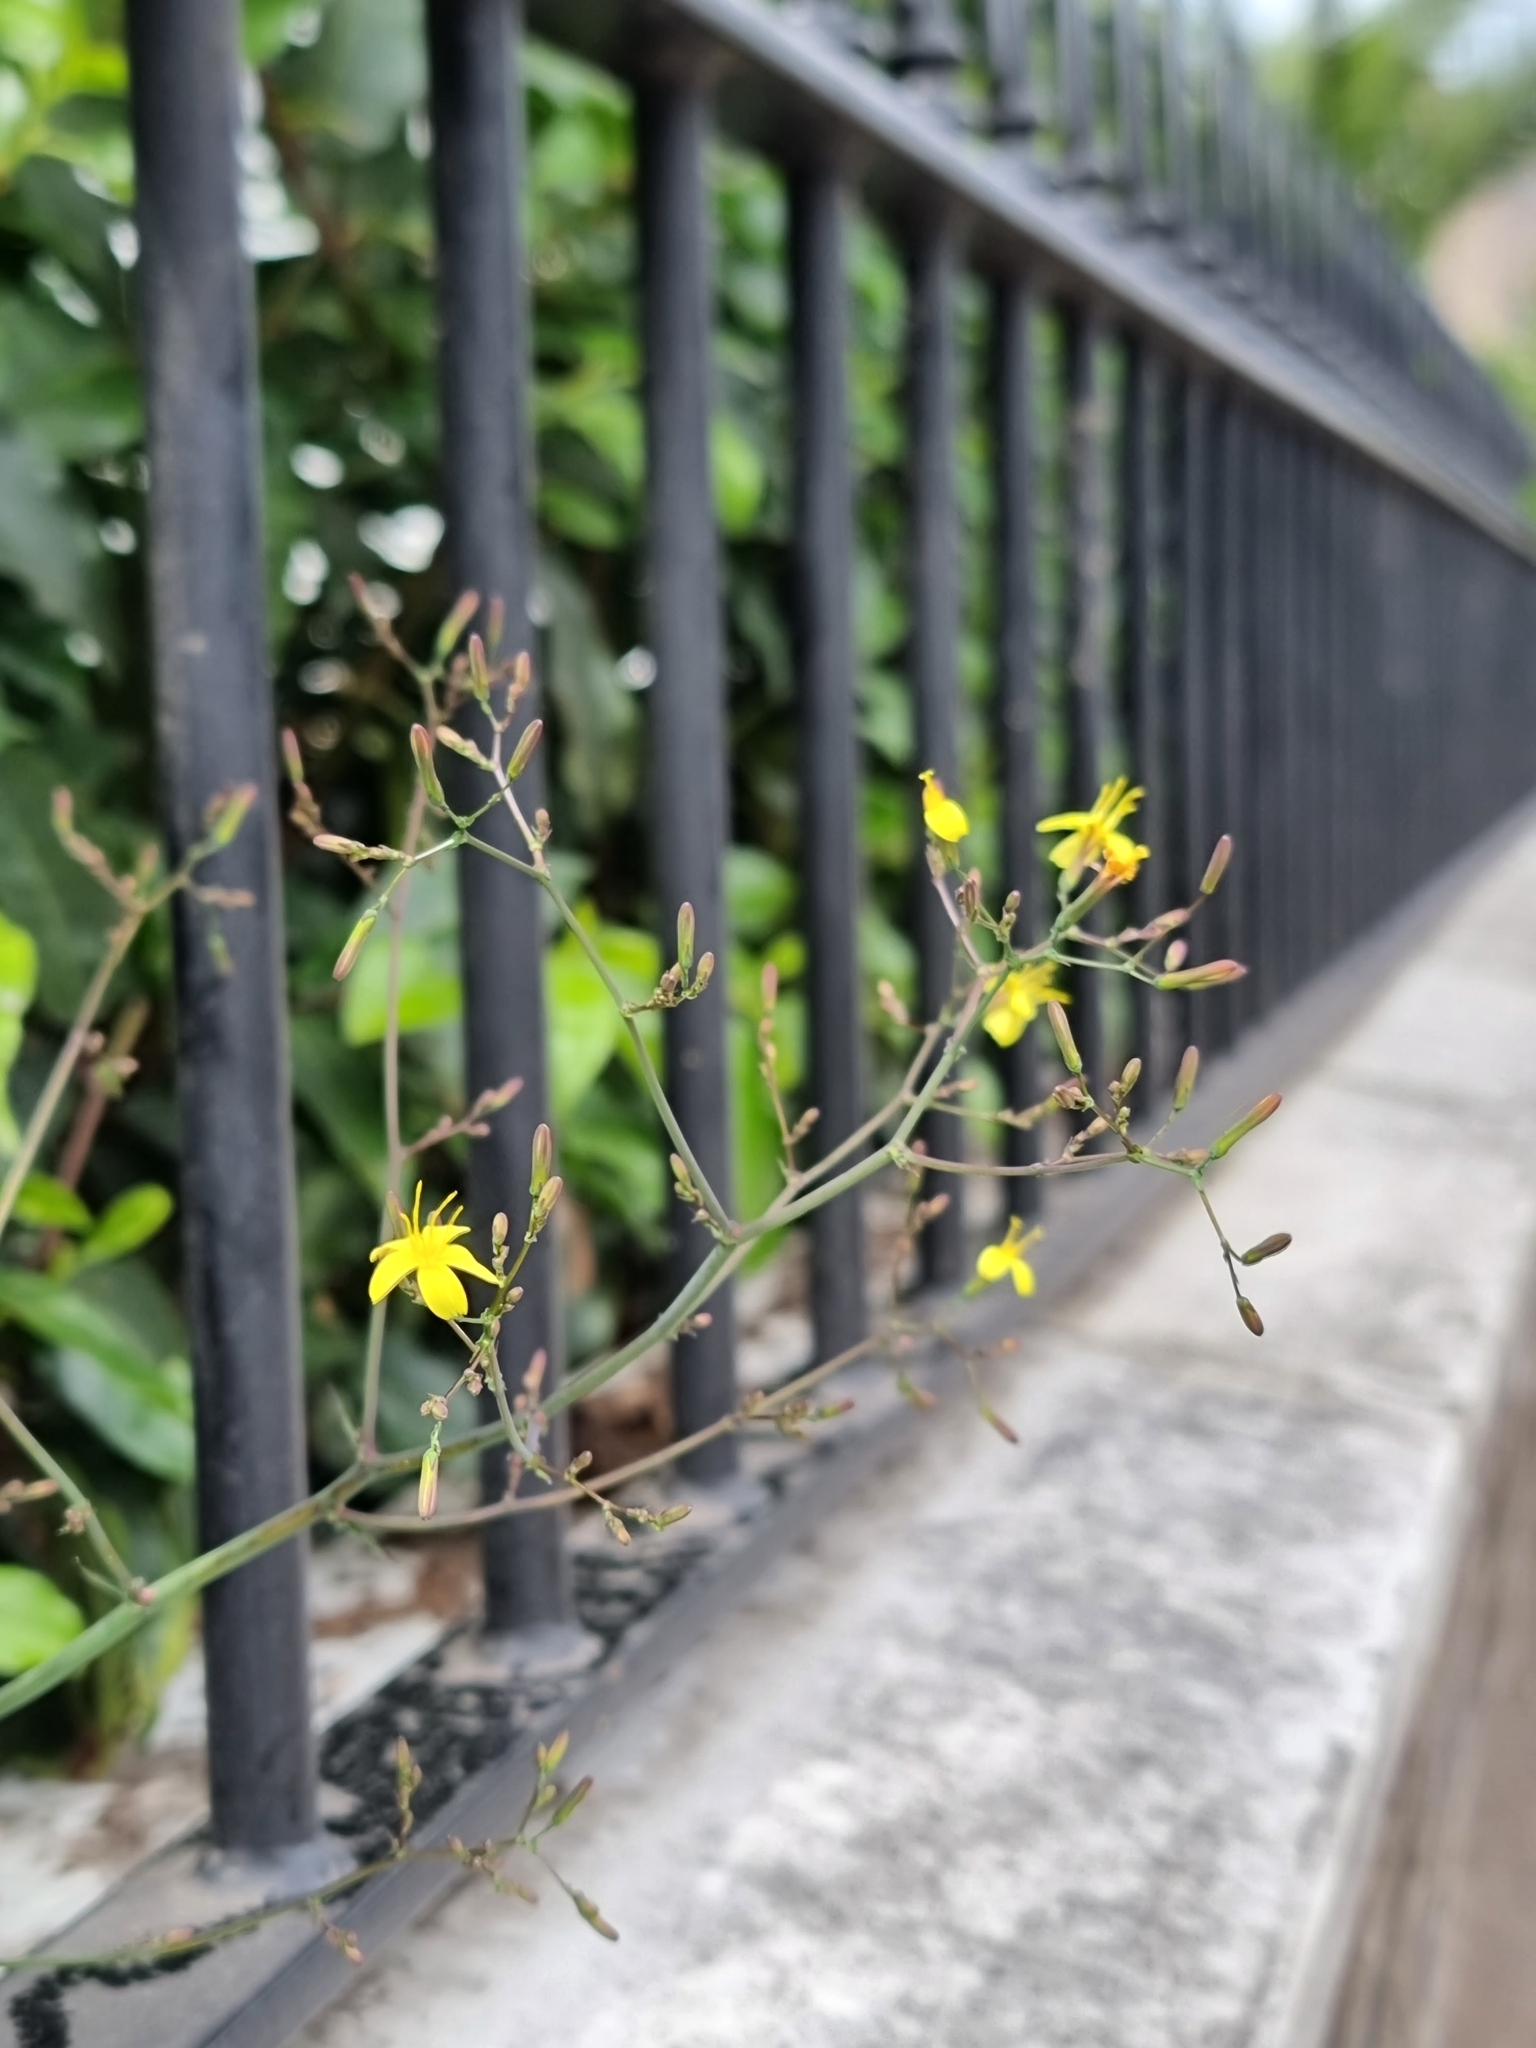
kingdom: Plantae
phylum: Tracheophyta
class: Magnoliopsida
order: Asterales
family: Asteraceae
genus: Mycelis
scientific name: Mycelis muralis
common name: Wall lettuce
